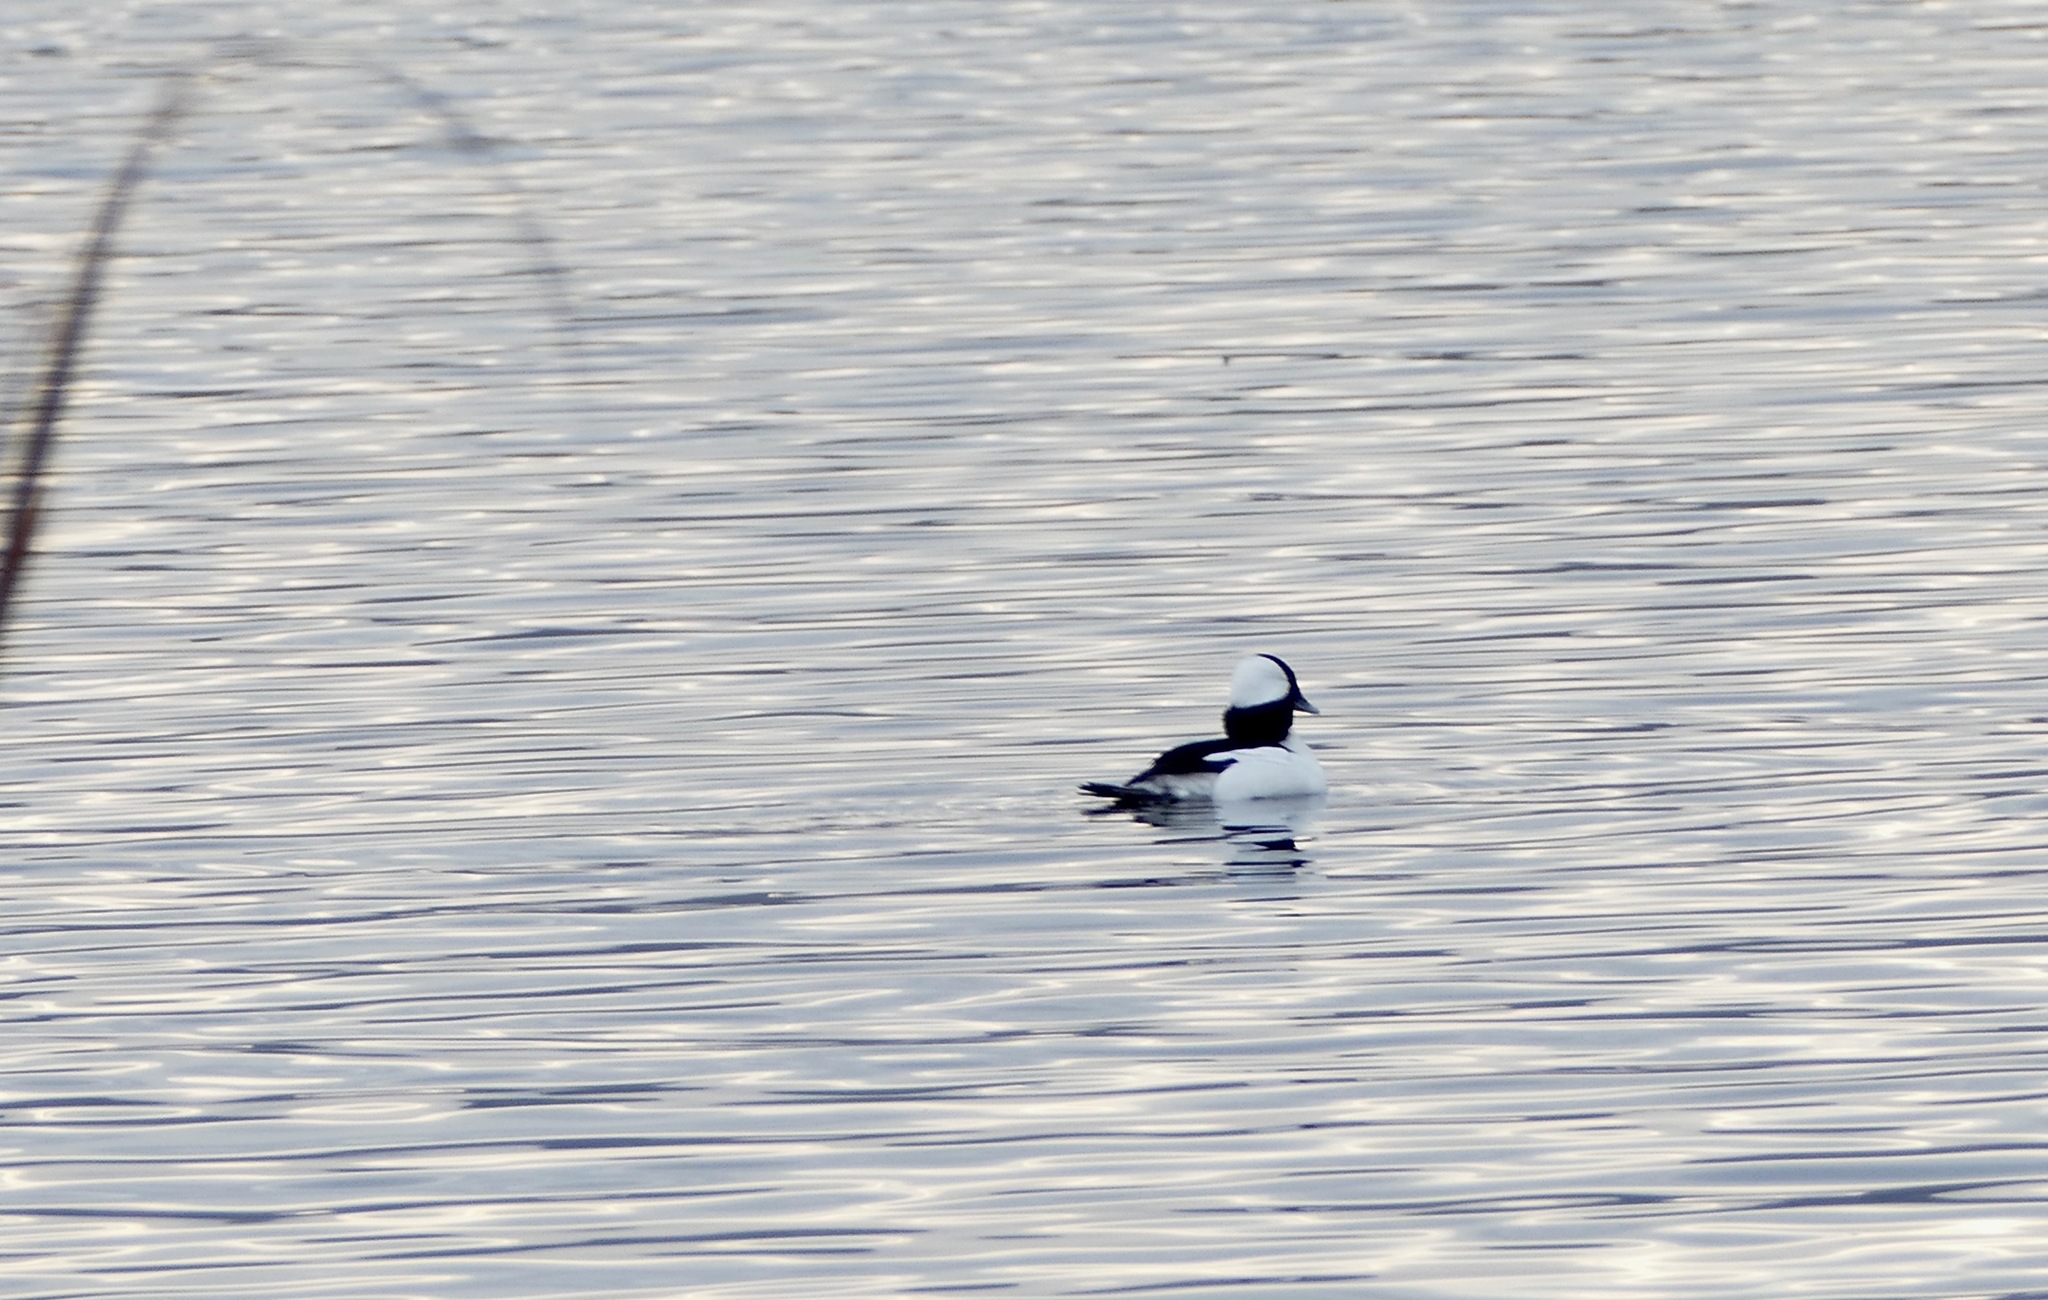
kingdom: Animalia
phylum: Chordata
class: Aves
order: Anseriformes
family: Anatidae
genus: Bucephala
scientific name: Bucephala albeola
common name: Bufflehead
